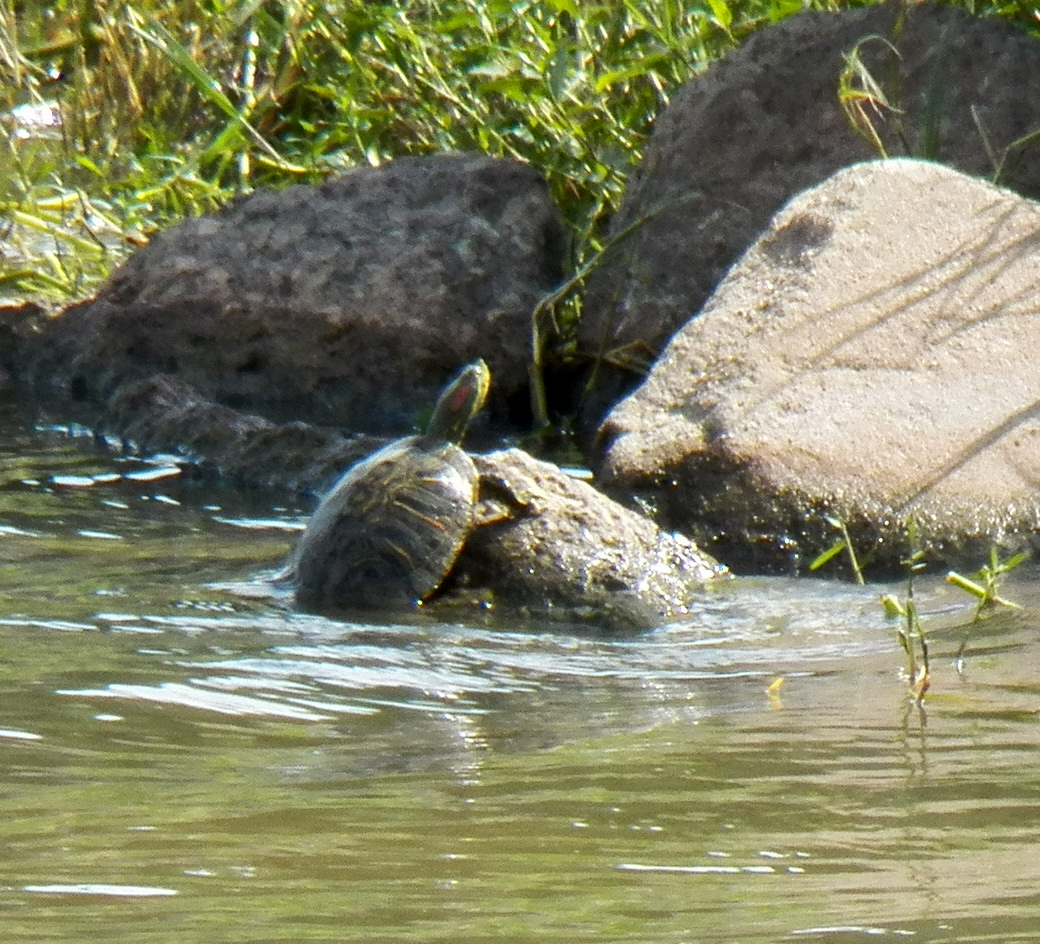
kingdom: Animalia
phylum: Chordata
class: Testudines
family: Emydidae
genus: Trachemys
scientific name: Trachemys scripta
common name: Slider
